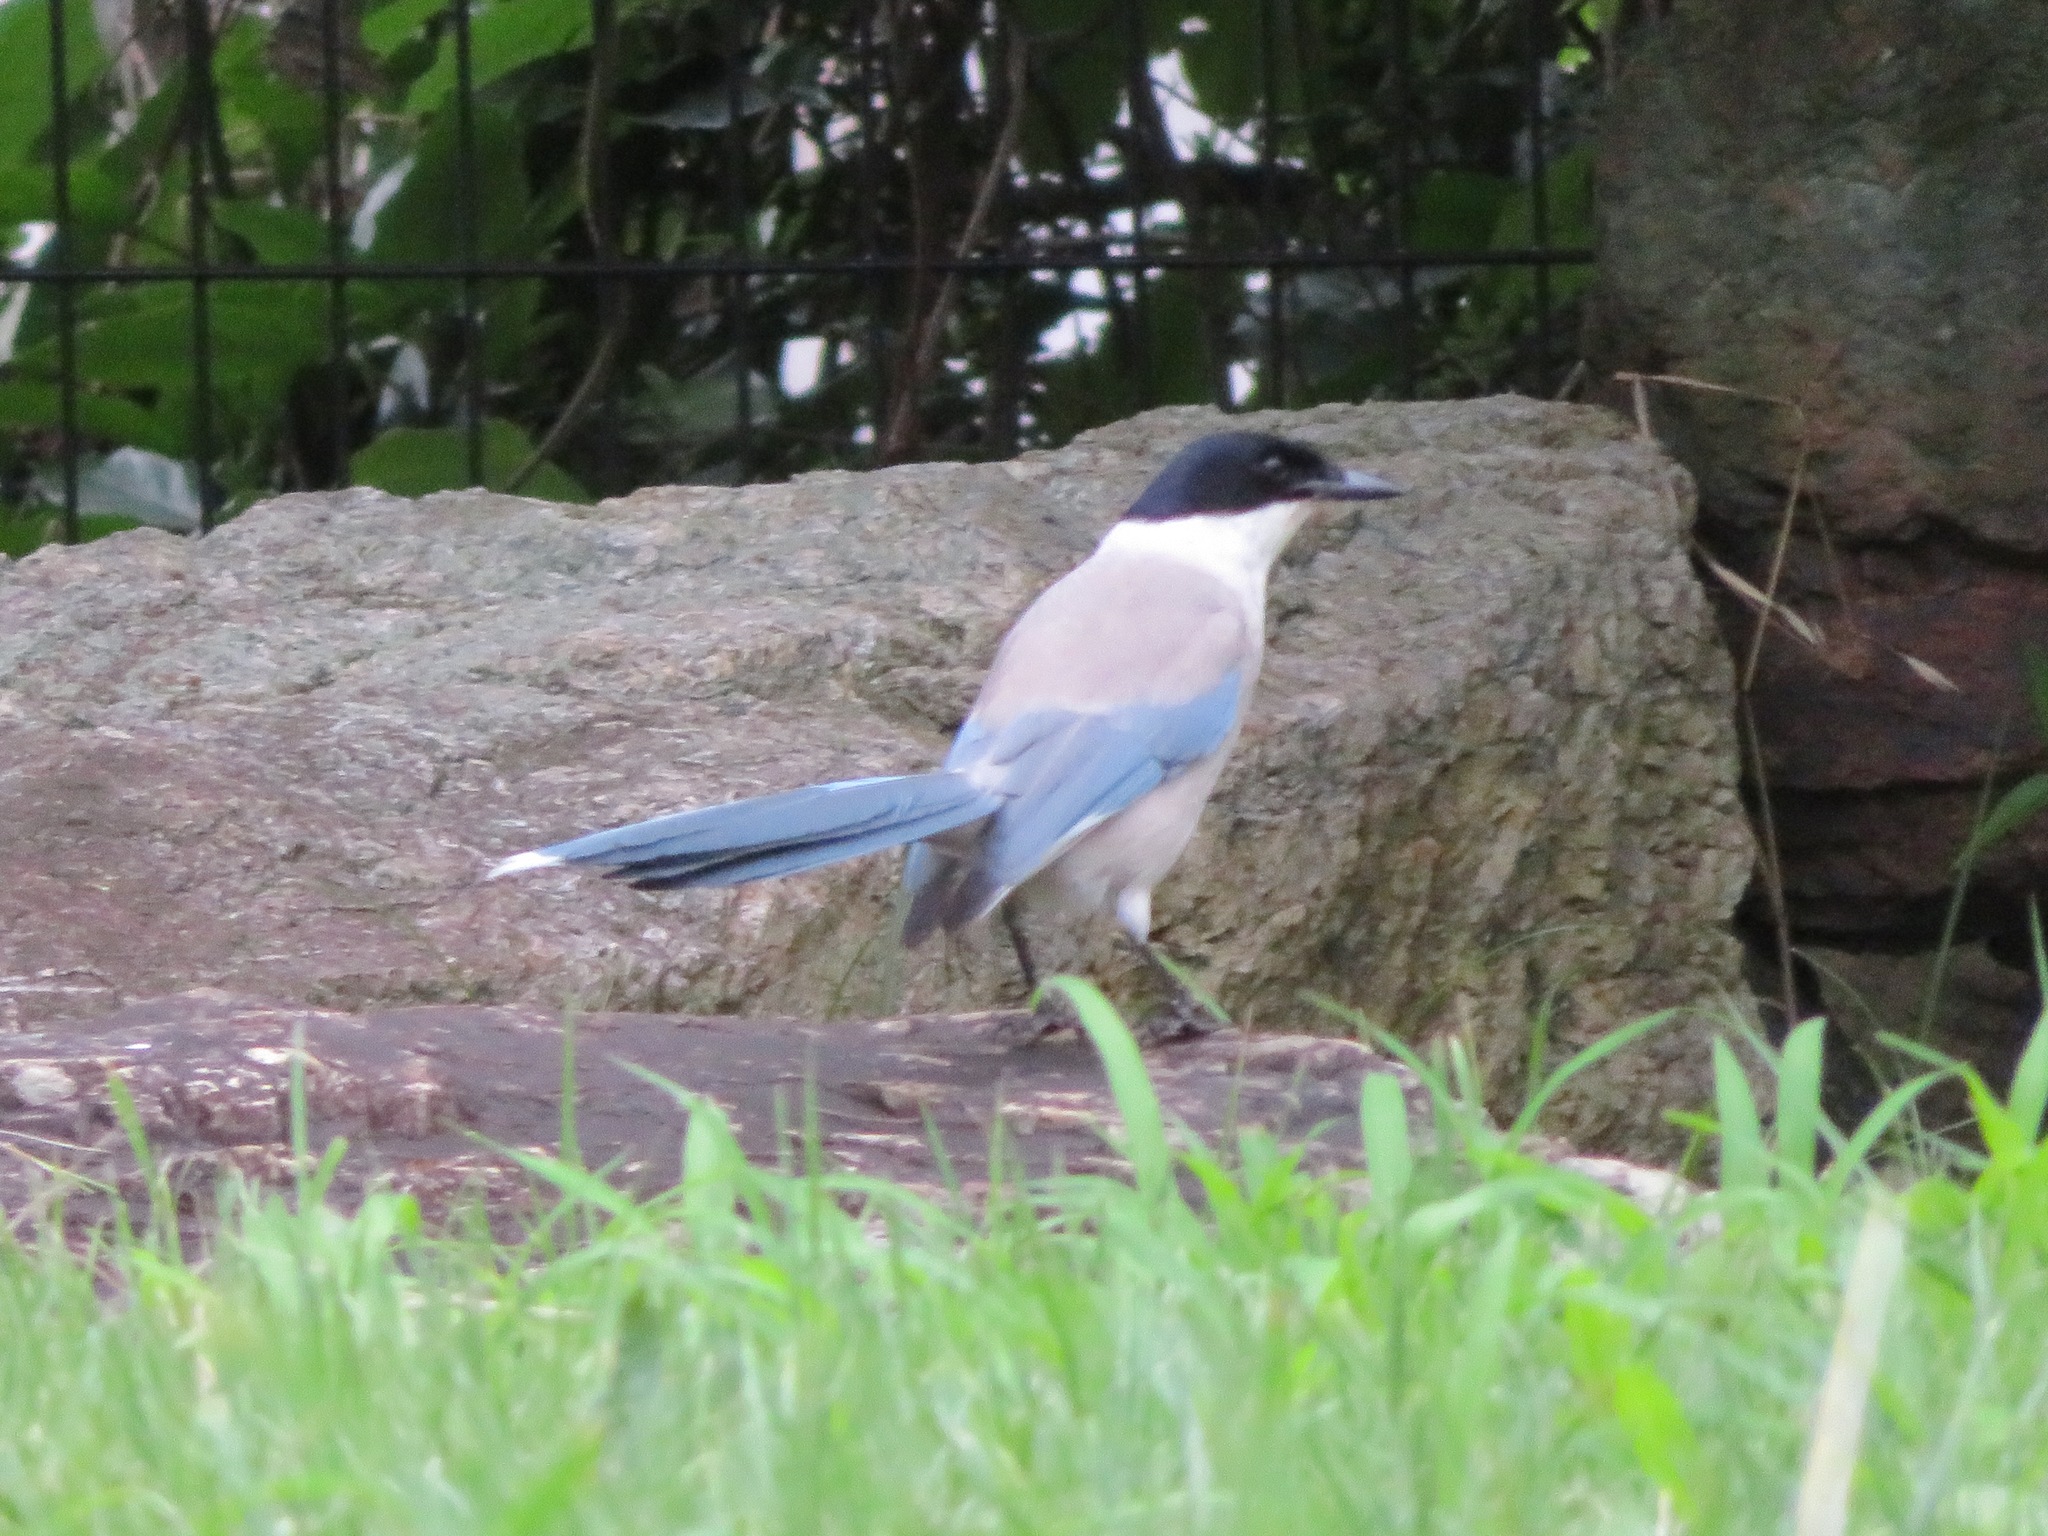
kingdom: Animalia
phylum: Chordata
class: Aves
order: Passeriformes
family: Corvidae
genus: Cyanopica
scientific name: Cyanopica cyanus
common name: Azure-winged magpie
